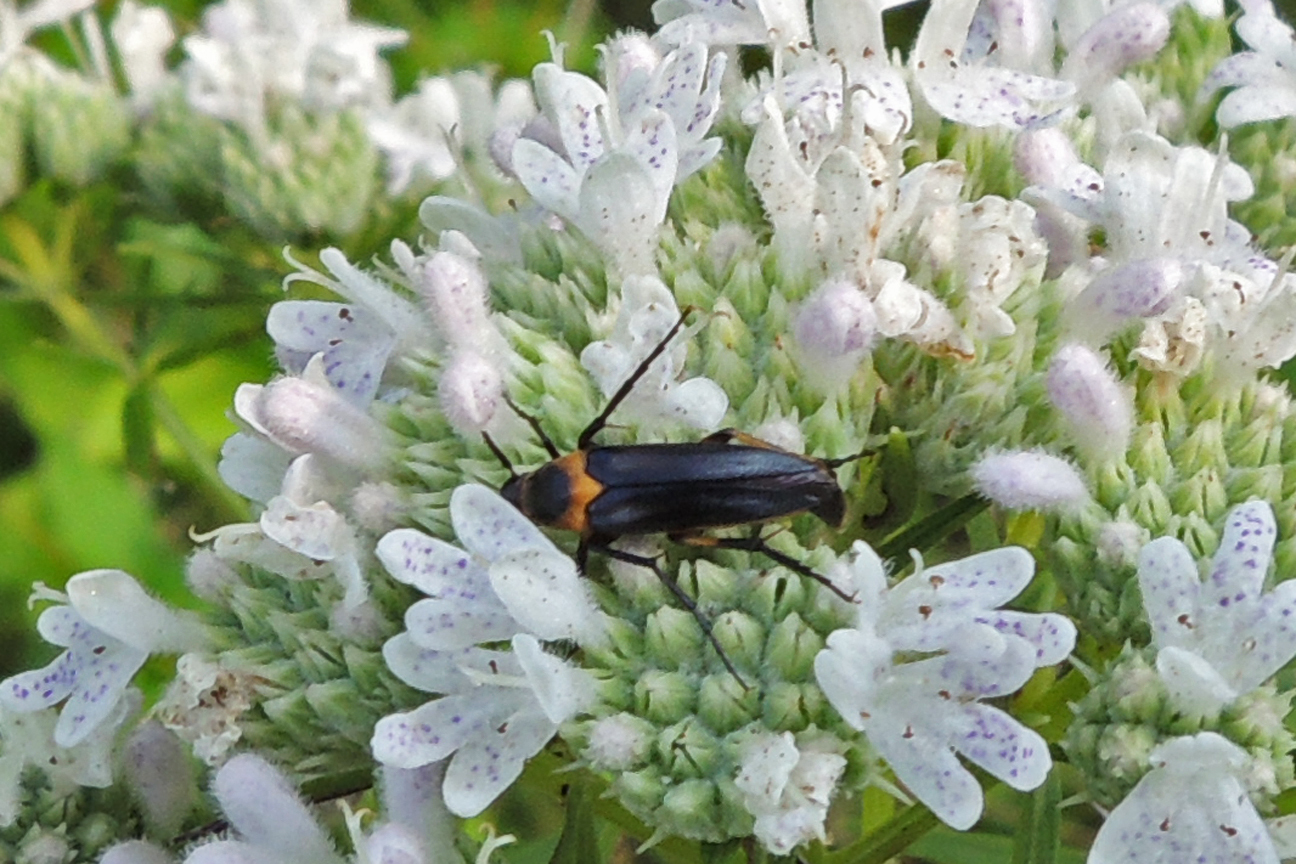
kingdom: Animalia
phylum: Arthropoda
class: Insecta
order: Coleoptera
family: Ripiphoridae
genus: Macrosiagon
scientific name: Macrosiagon limbatum
